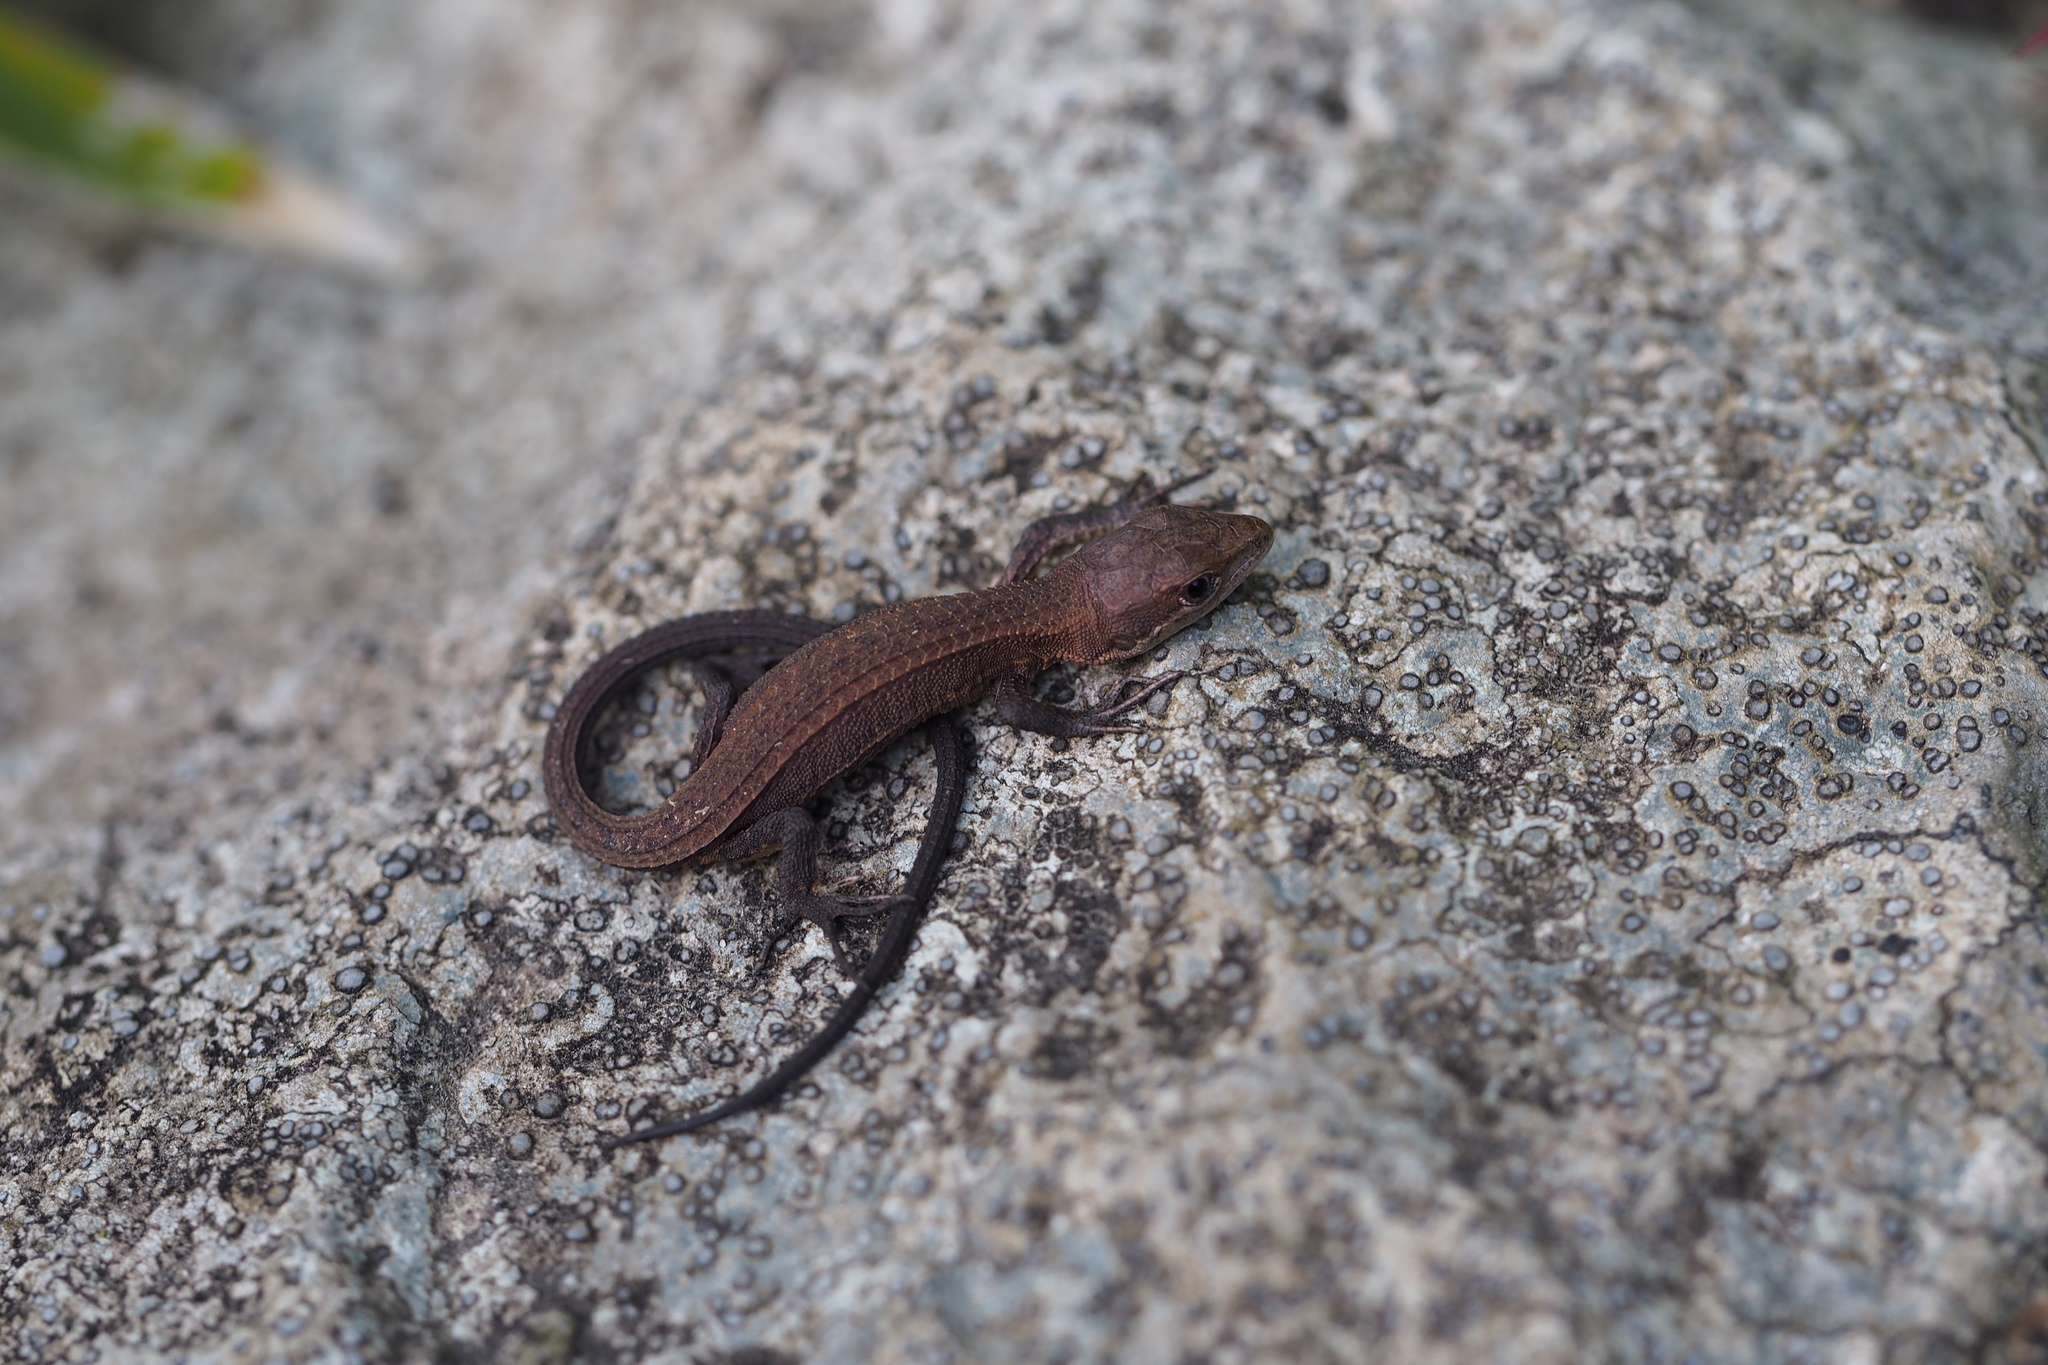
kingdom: Animalia
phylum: Chordata
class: Squamata
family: Lacertidae
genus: Takydromus
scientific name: Takydromus tachydromoides
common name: Japanese grass lizard
